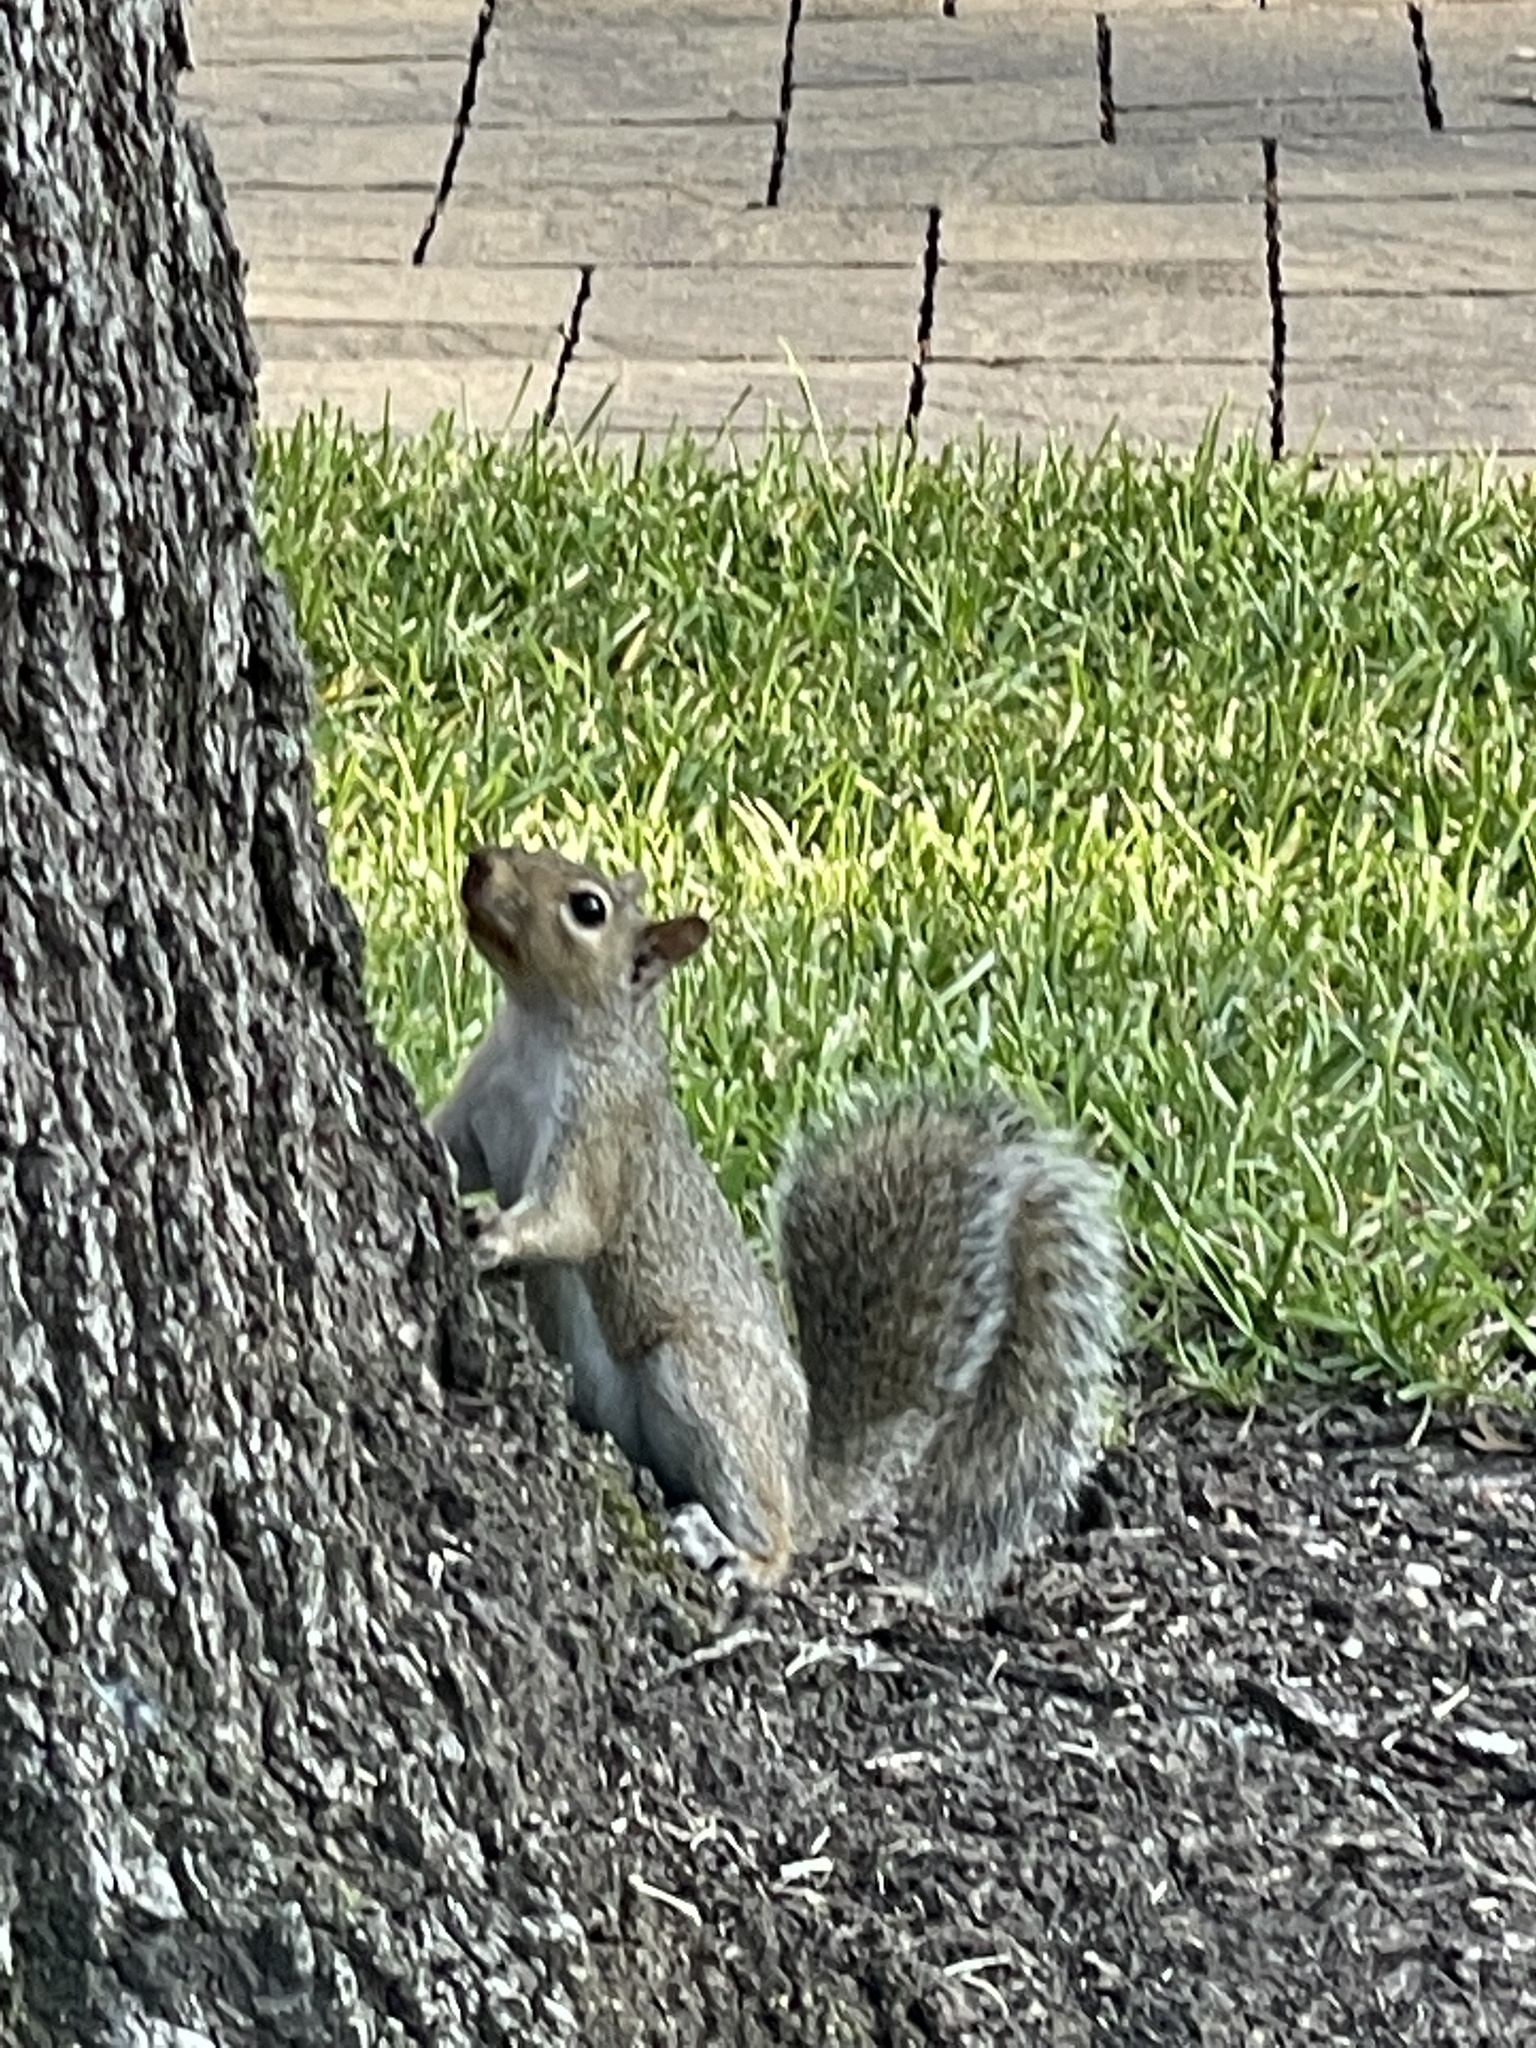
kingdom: Animalia
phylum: Chordata
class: Mammalia
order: Rodentia
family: Sciuridae
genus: Sciurus
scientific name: Sciurus carolinensis
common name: Eastern gray squirrel
